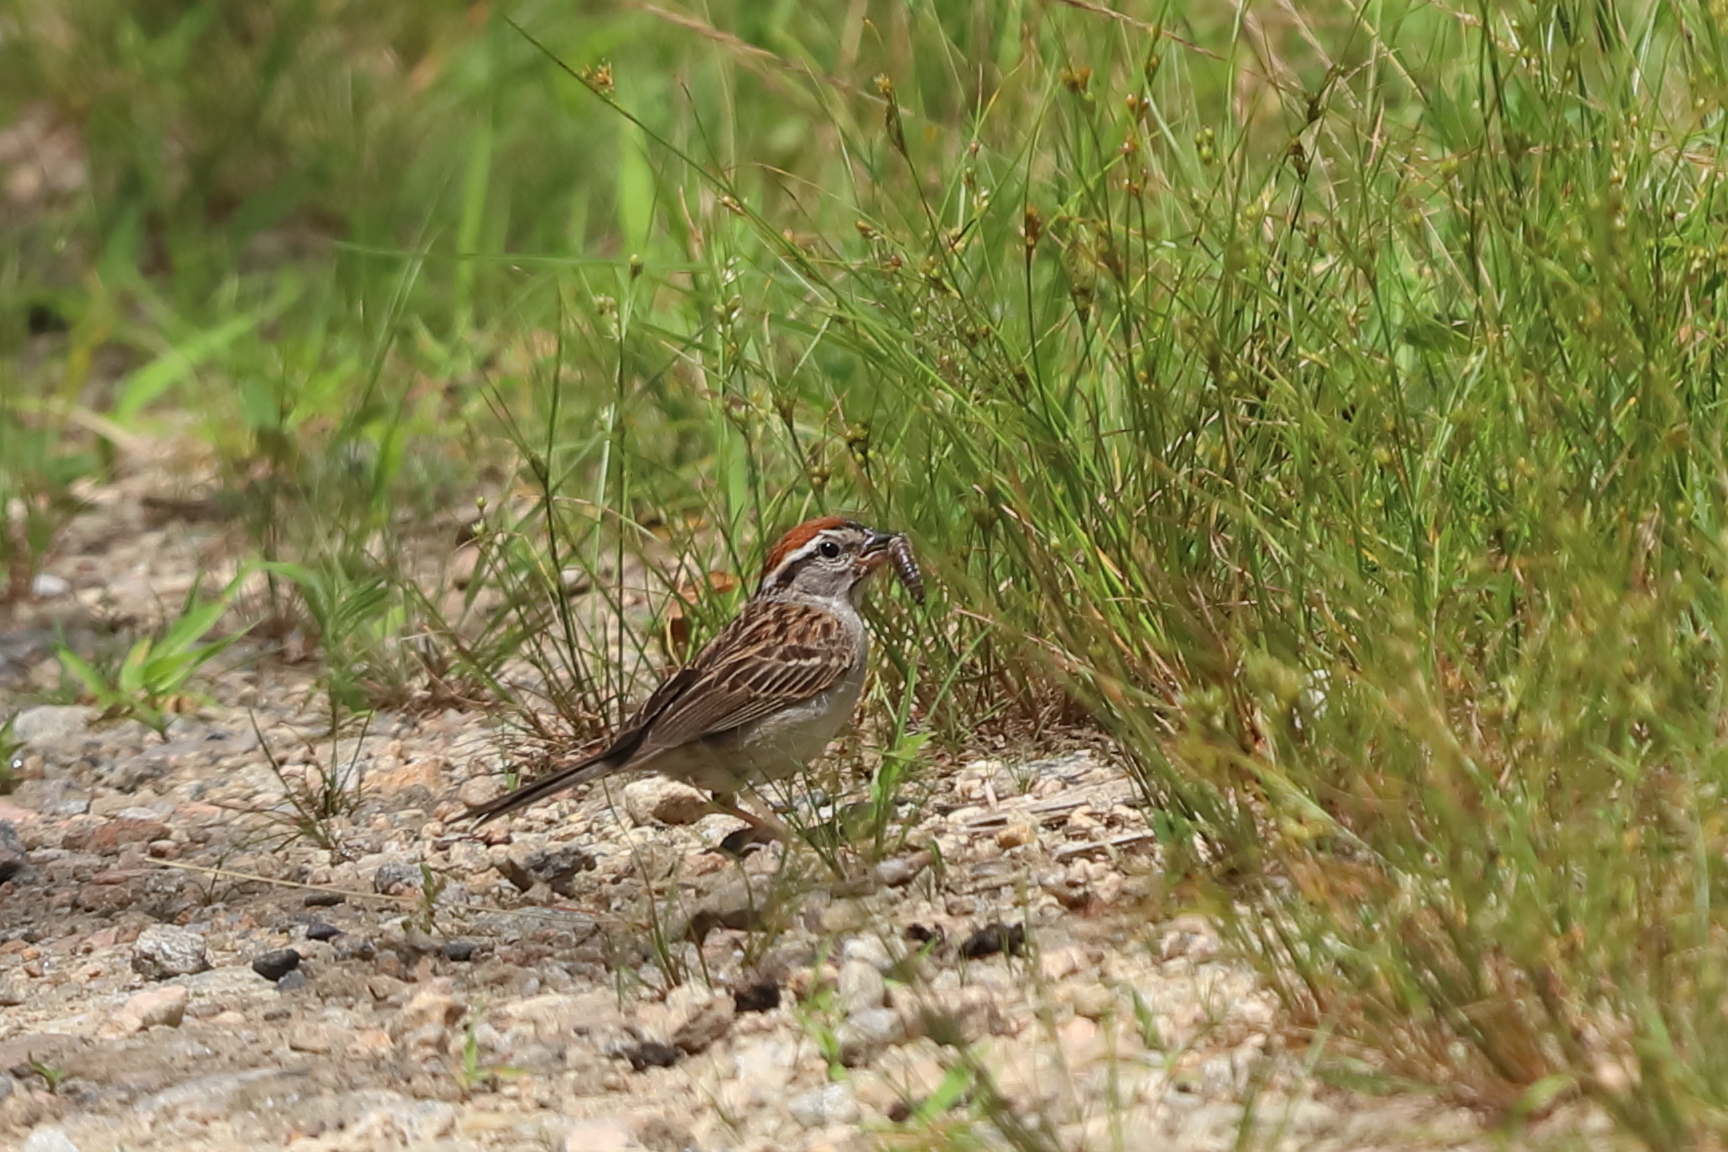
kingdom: Animalia
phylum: Chordata
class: Aves
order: Passeriformes
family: Passerellidae
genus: Spizella
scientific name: Spizella passerina
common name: Chipping sparrow
